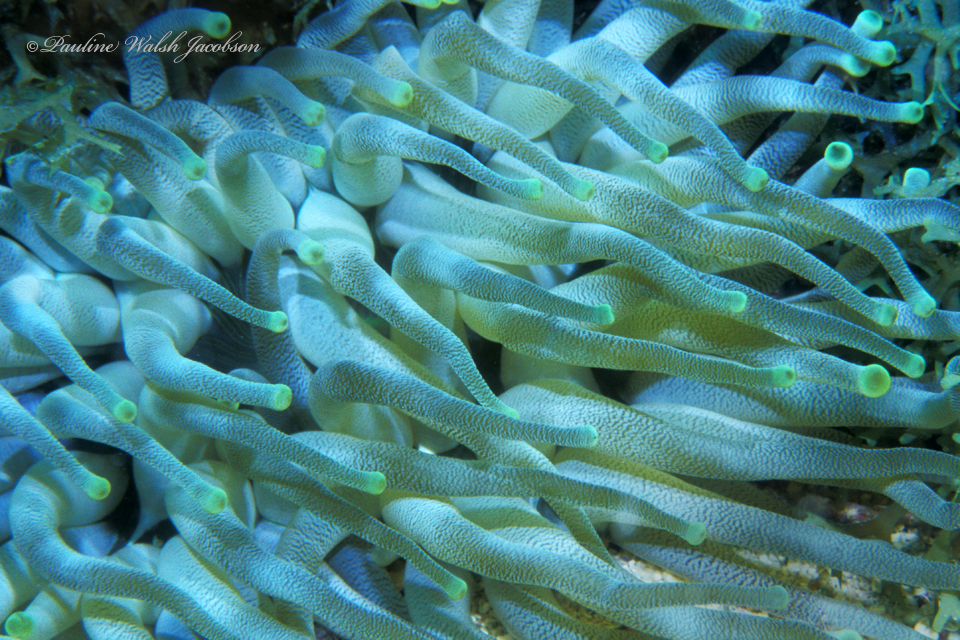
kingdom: Animalia
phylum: Cnidaria
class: Anthozoa
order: Actiniaria
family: Actiniidae
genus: Condylactis
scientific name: Condylactis gigantea
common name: Giant caribbean anemone
